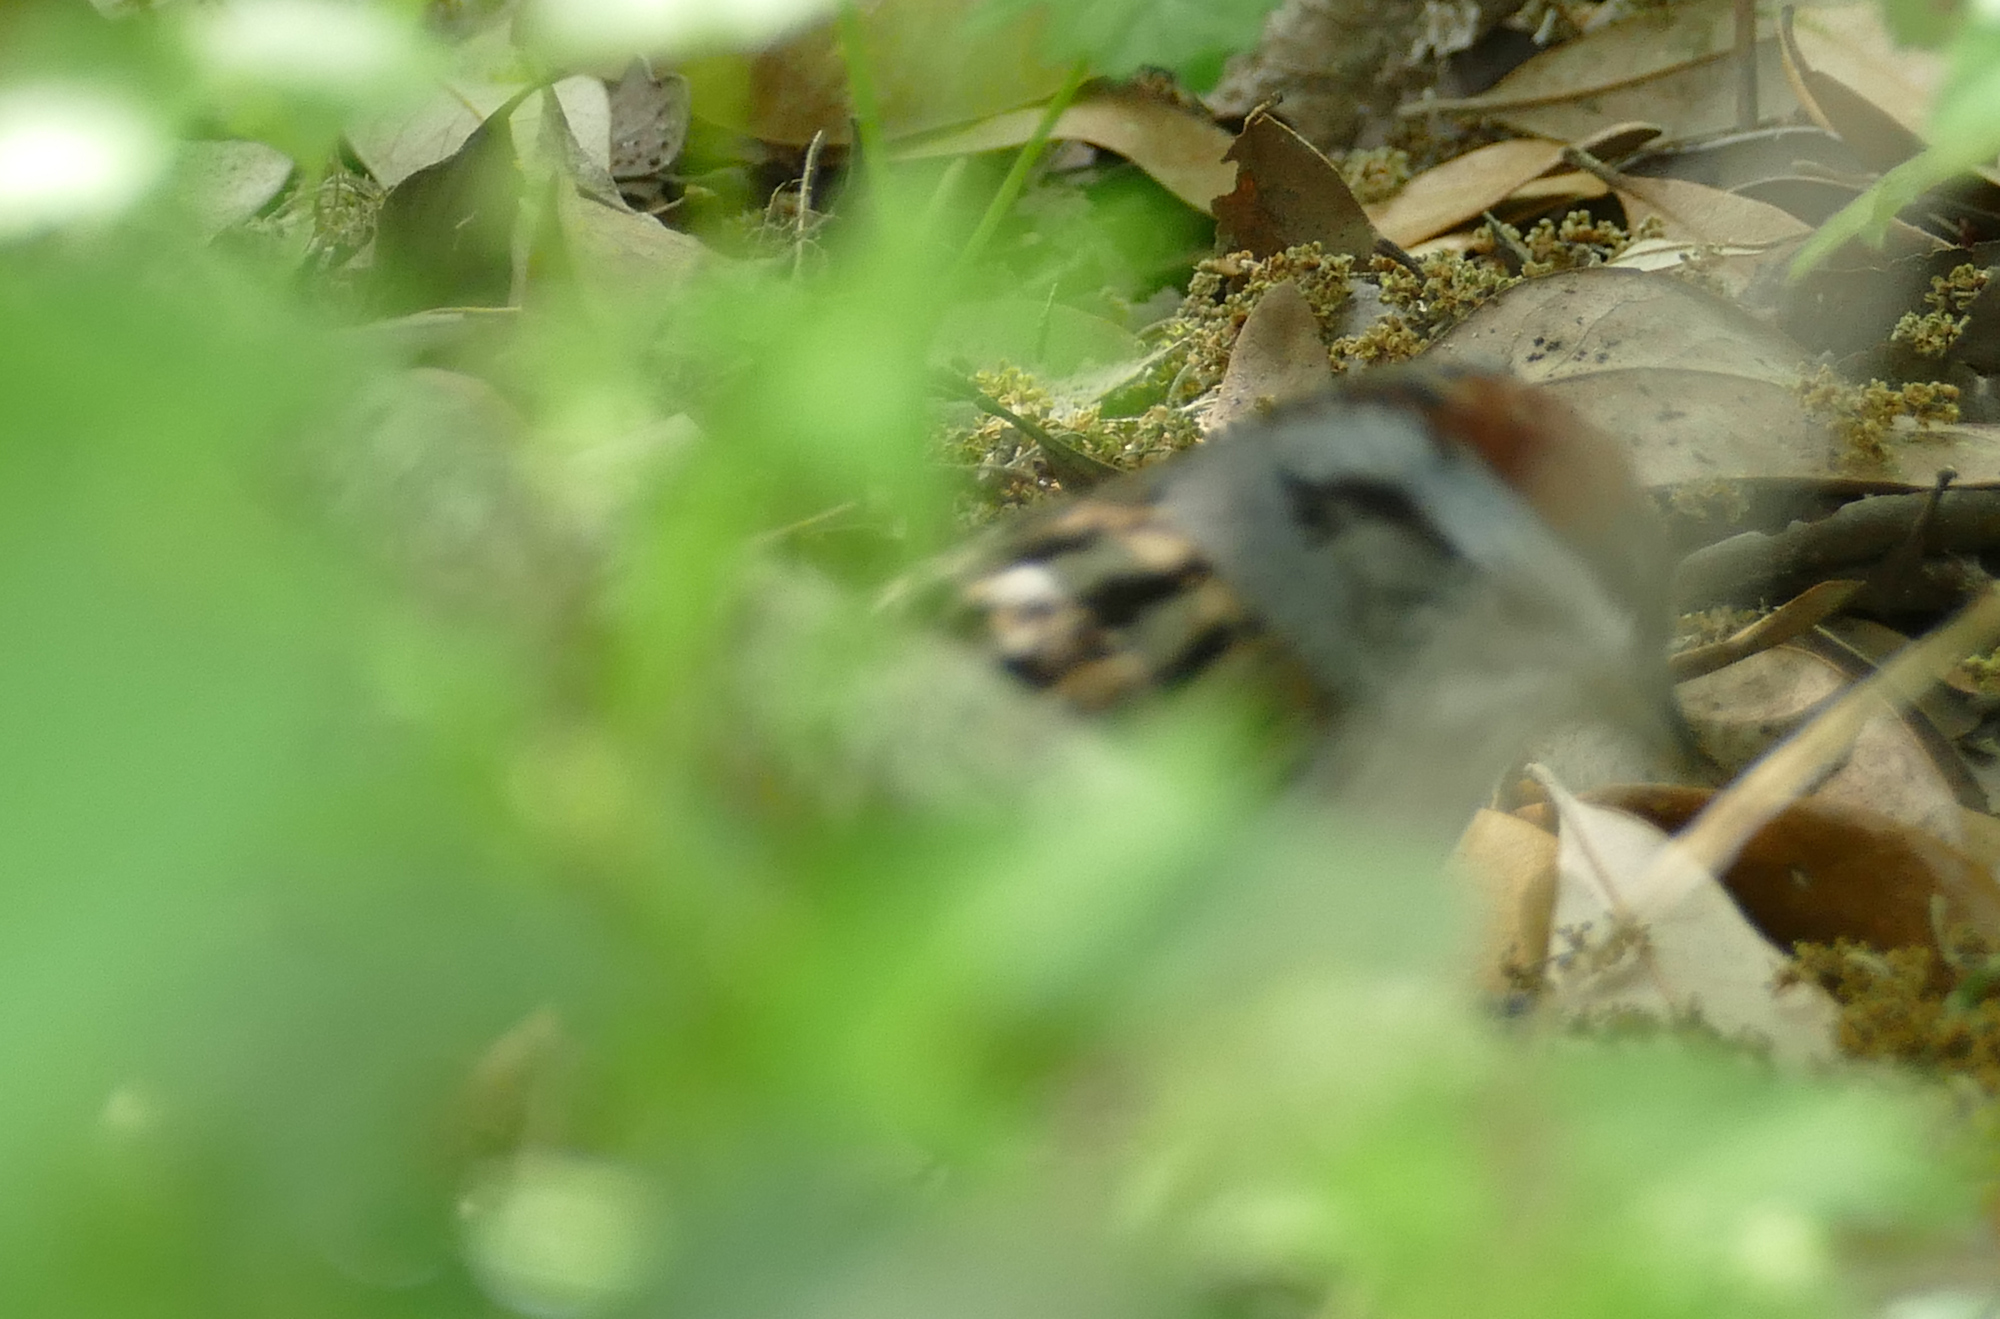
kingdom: Animalia
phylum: Chordata
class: Aves
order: Passeriformes
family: Passerellidae
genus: Spizella
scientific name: Spizella passerina
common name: Chipping sparrow
